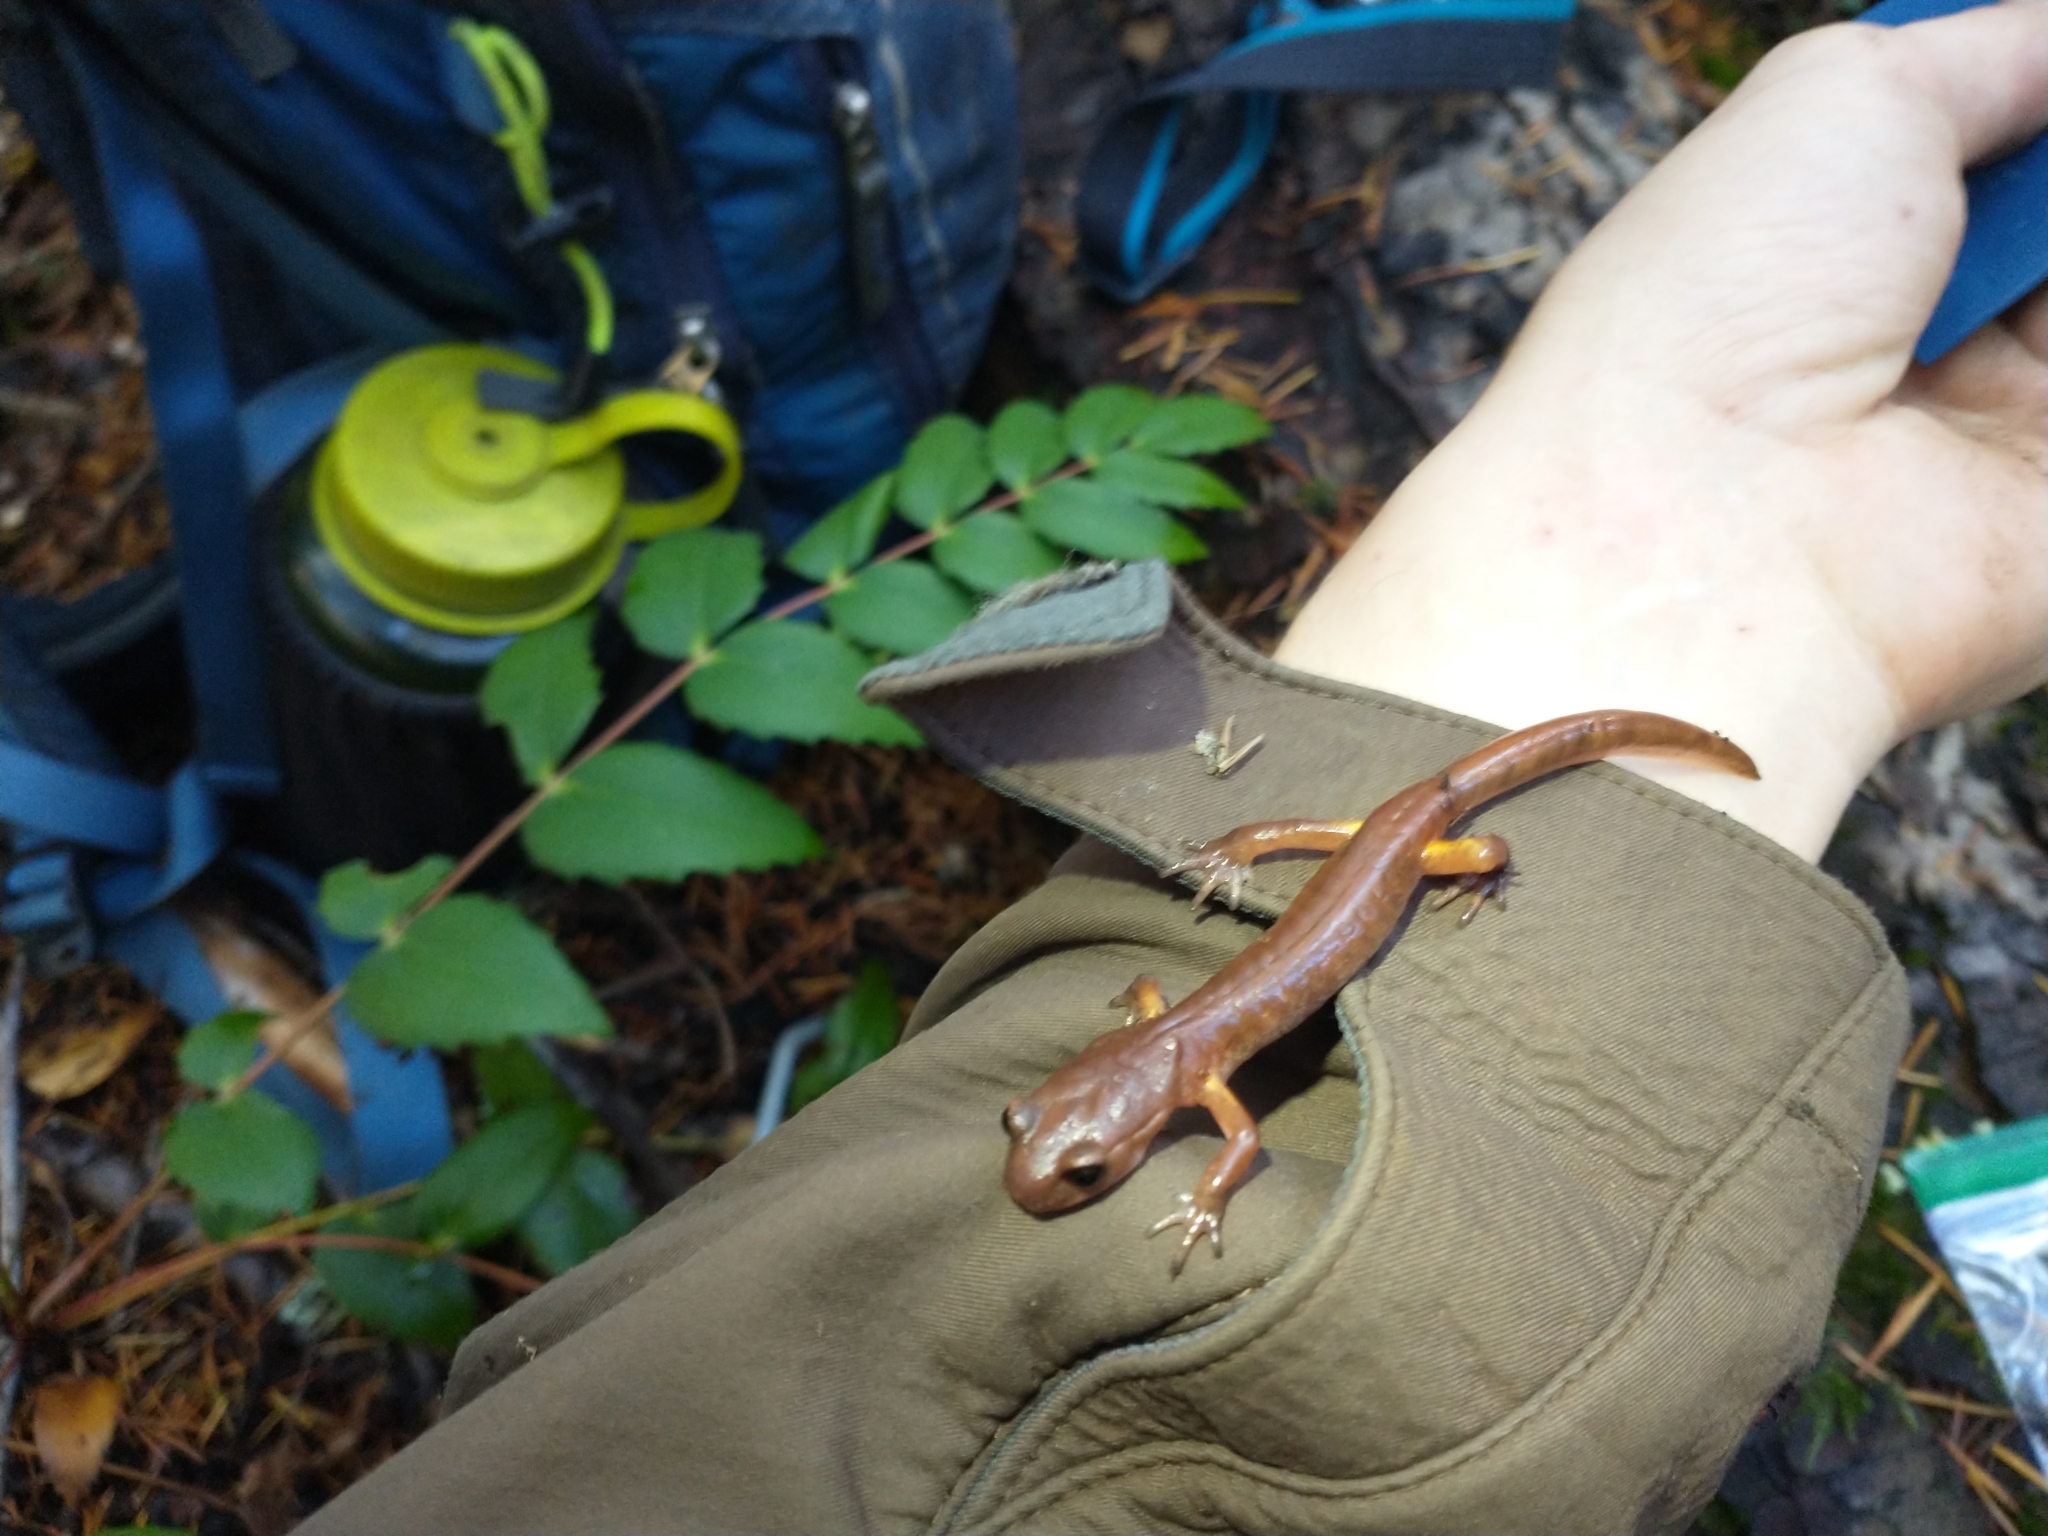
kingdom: Animalia
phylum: Chordata
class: Amphibia
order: Caudata
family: Plethodontidae
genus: Ensatina
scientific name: Ensatina eschscholtzii
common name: Ensatina
